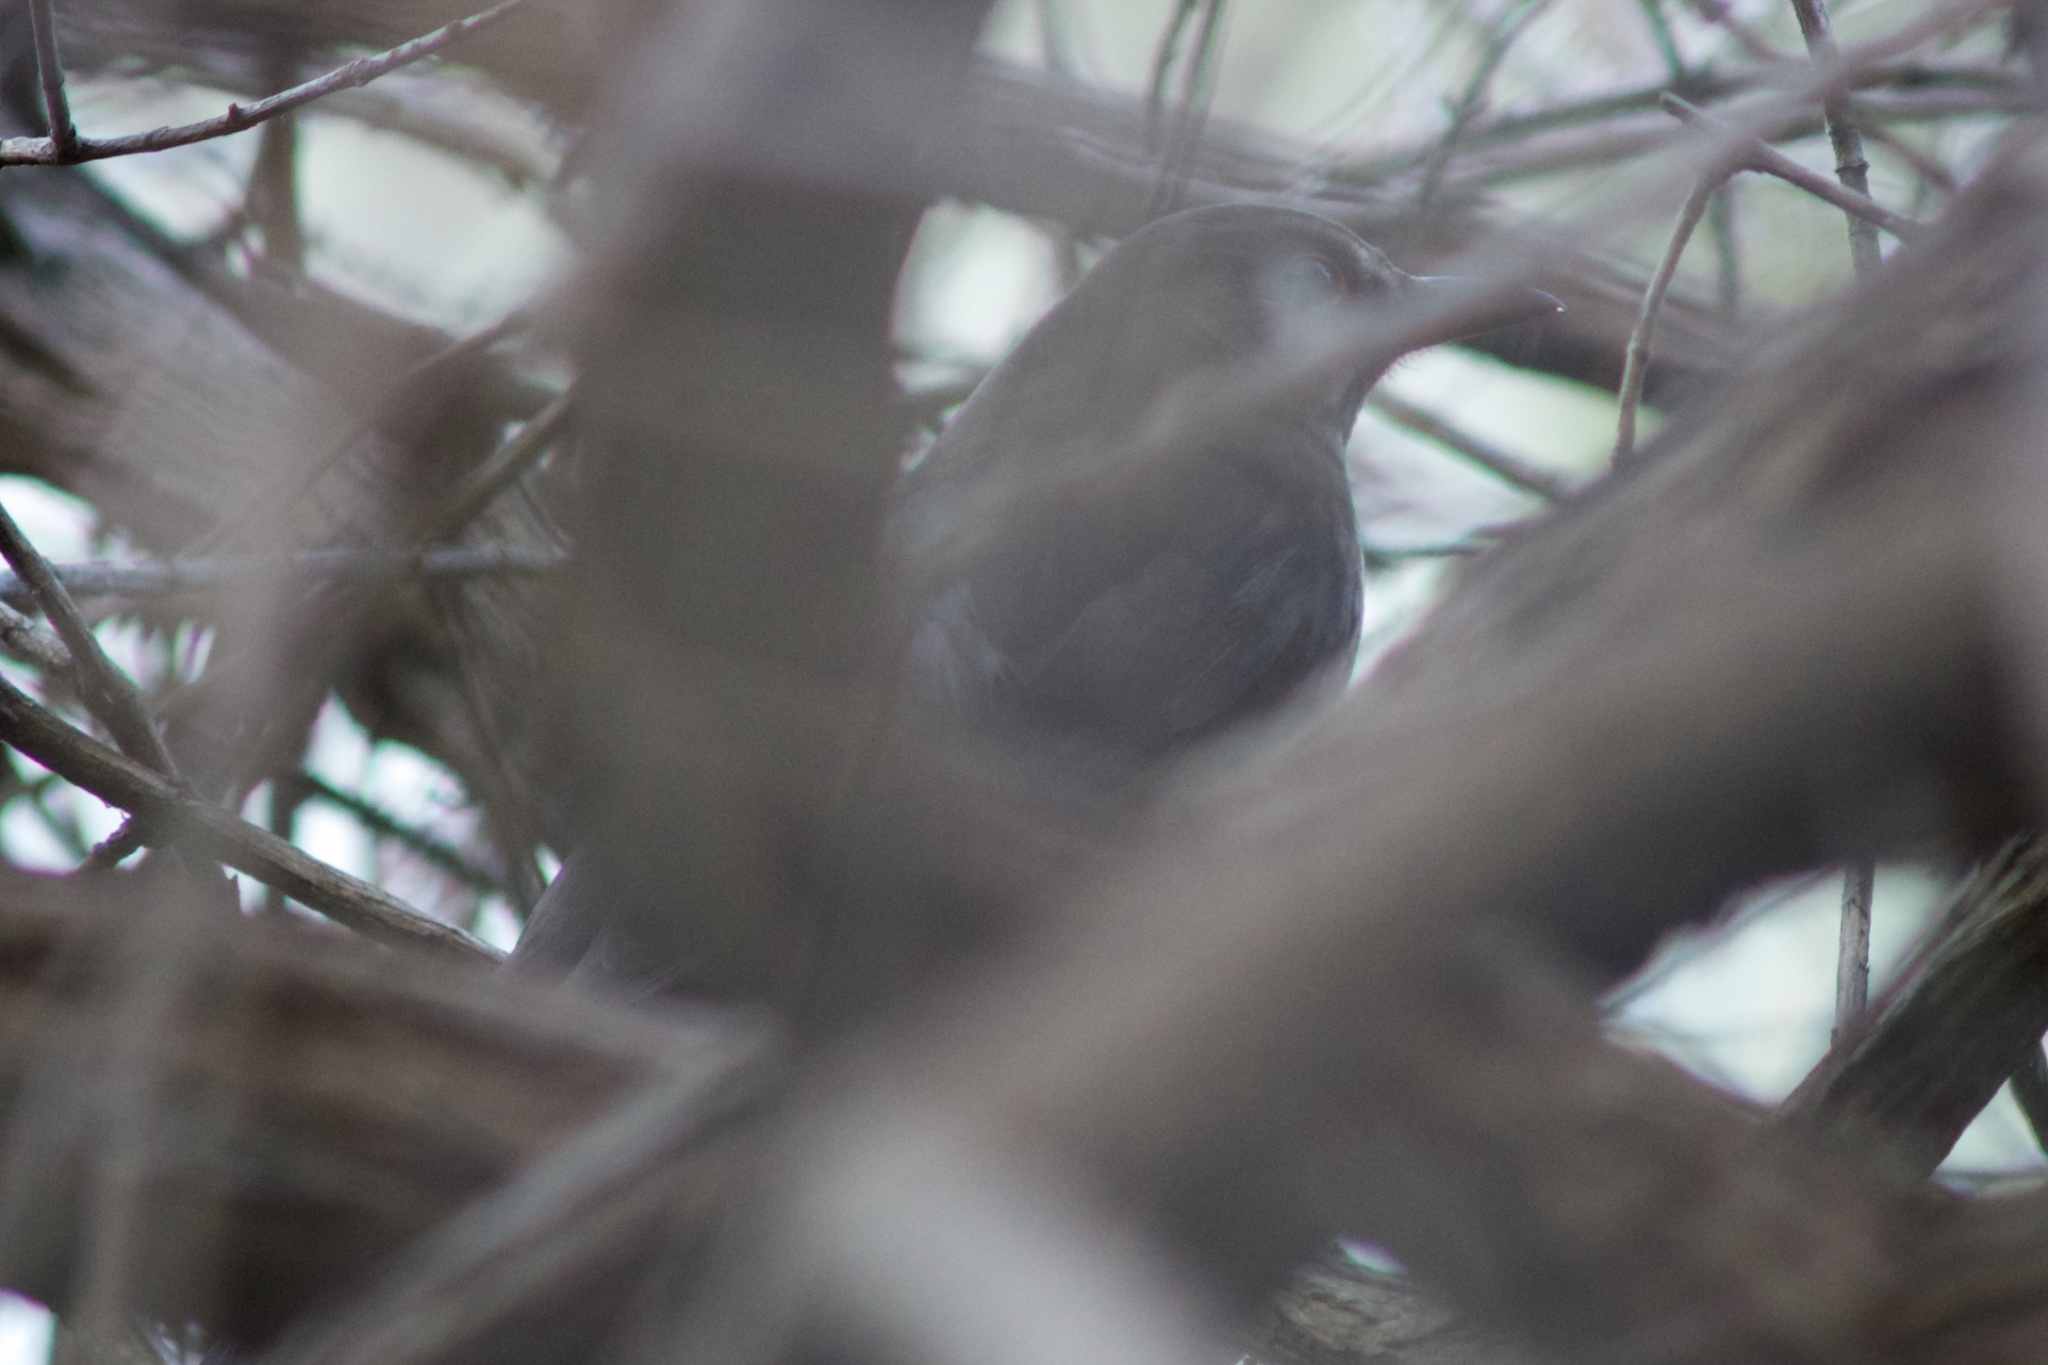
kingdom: Animalia
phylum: Chordata
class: Aves
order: Passeriformes
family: Turdidae
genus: Turdus
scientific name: Turdus merula
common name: Common blackbird
